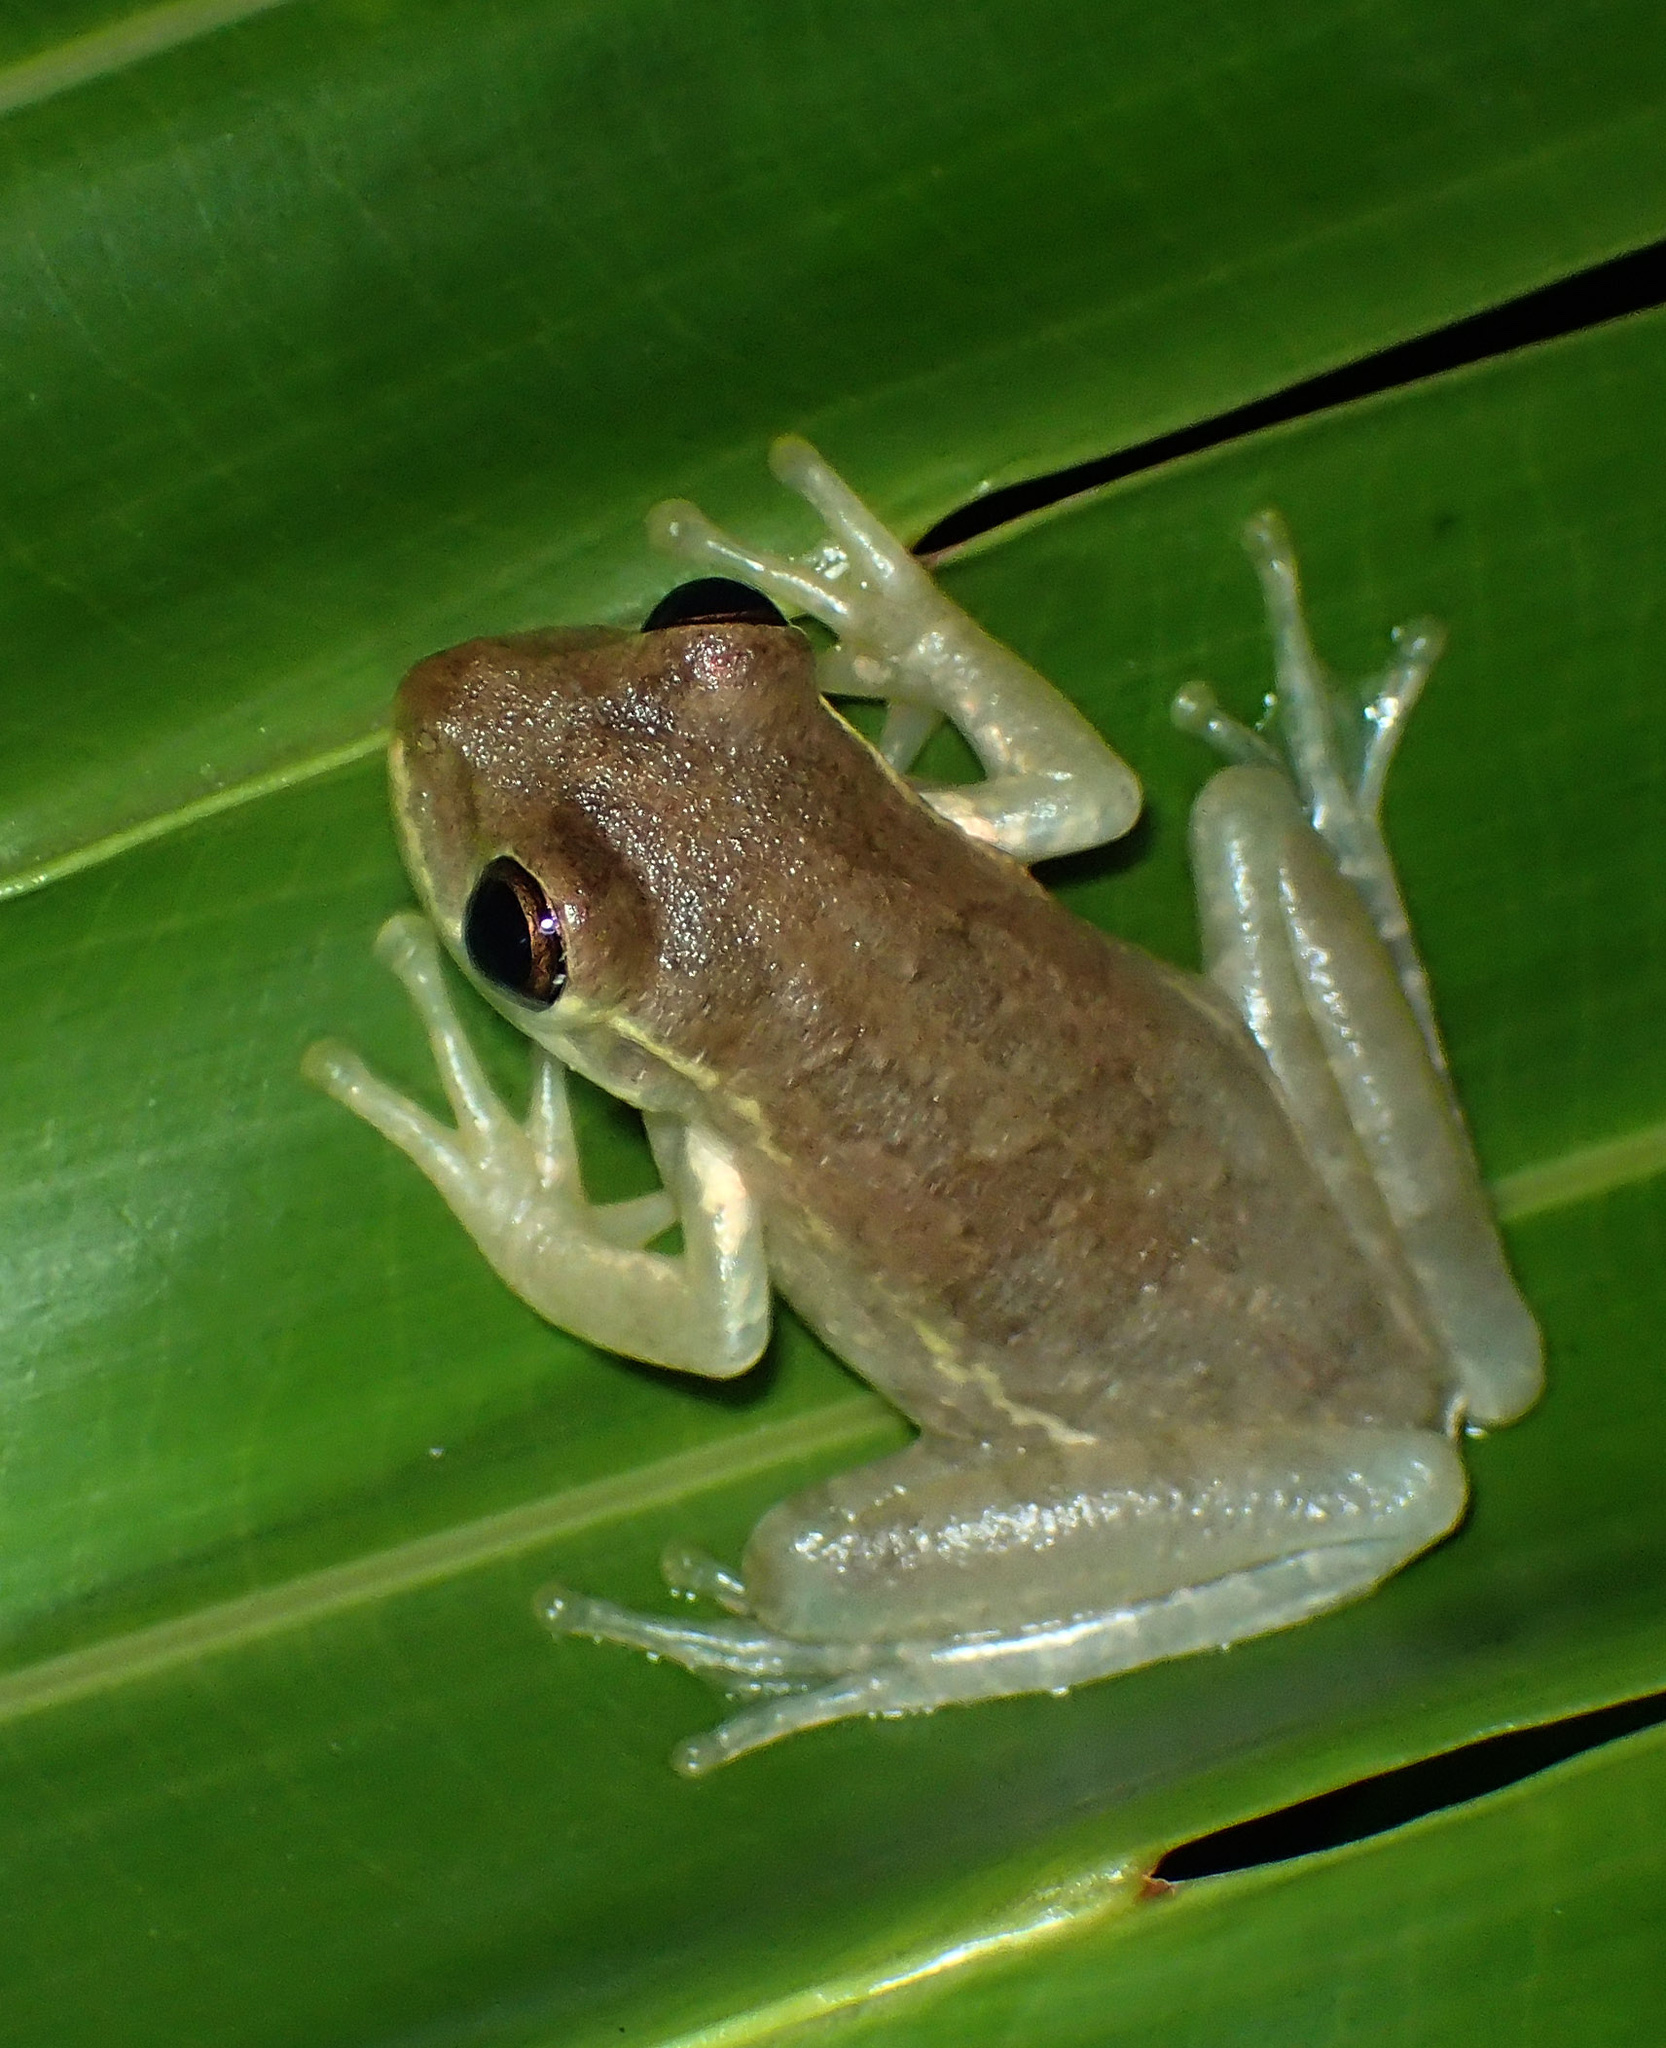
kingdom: Animalia
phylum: Chordata
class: Amphibia
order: Anura
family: Hylidae
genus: Osteopilus
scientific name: Osteopilus septentrionalis
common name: Cuban treefrog
